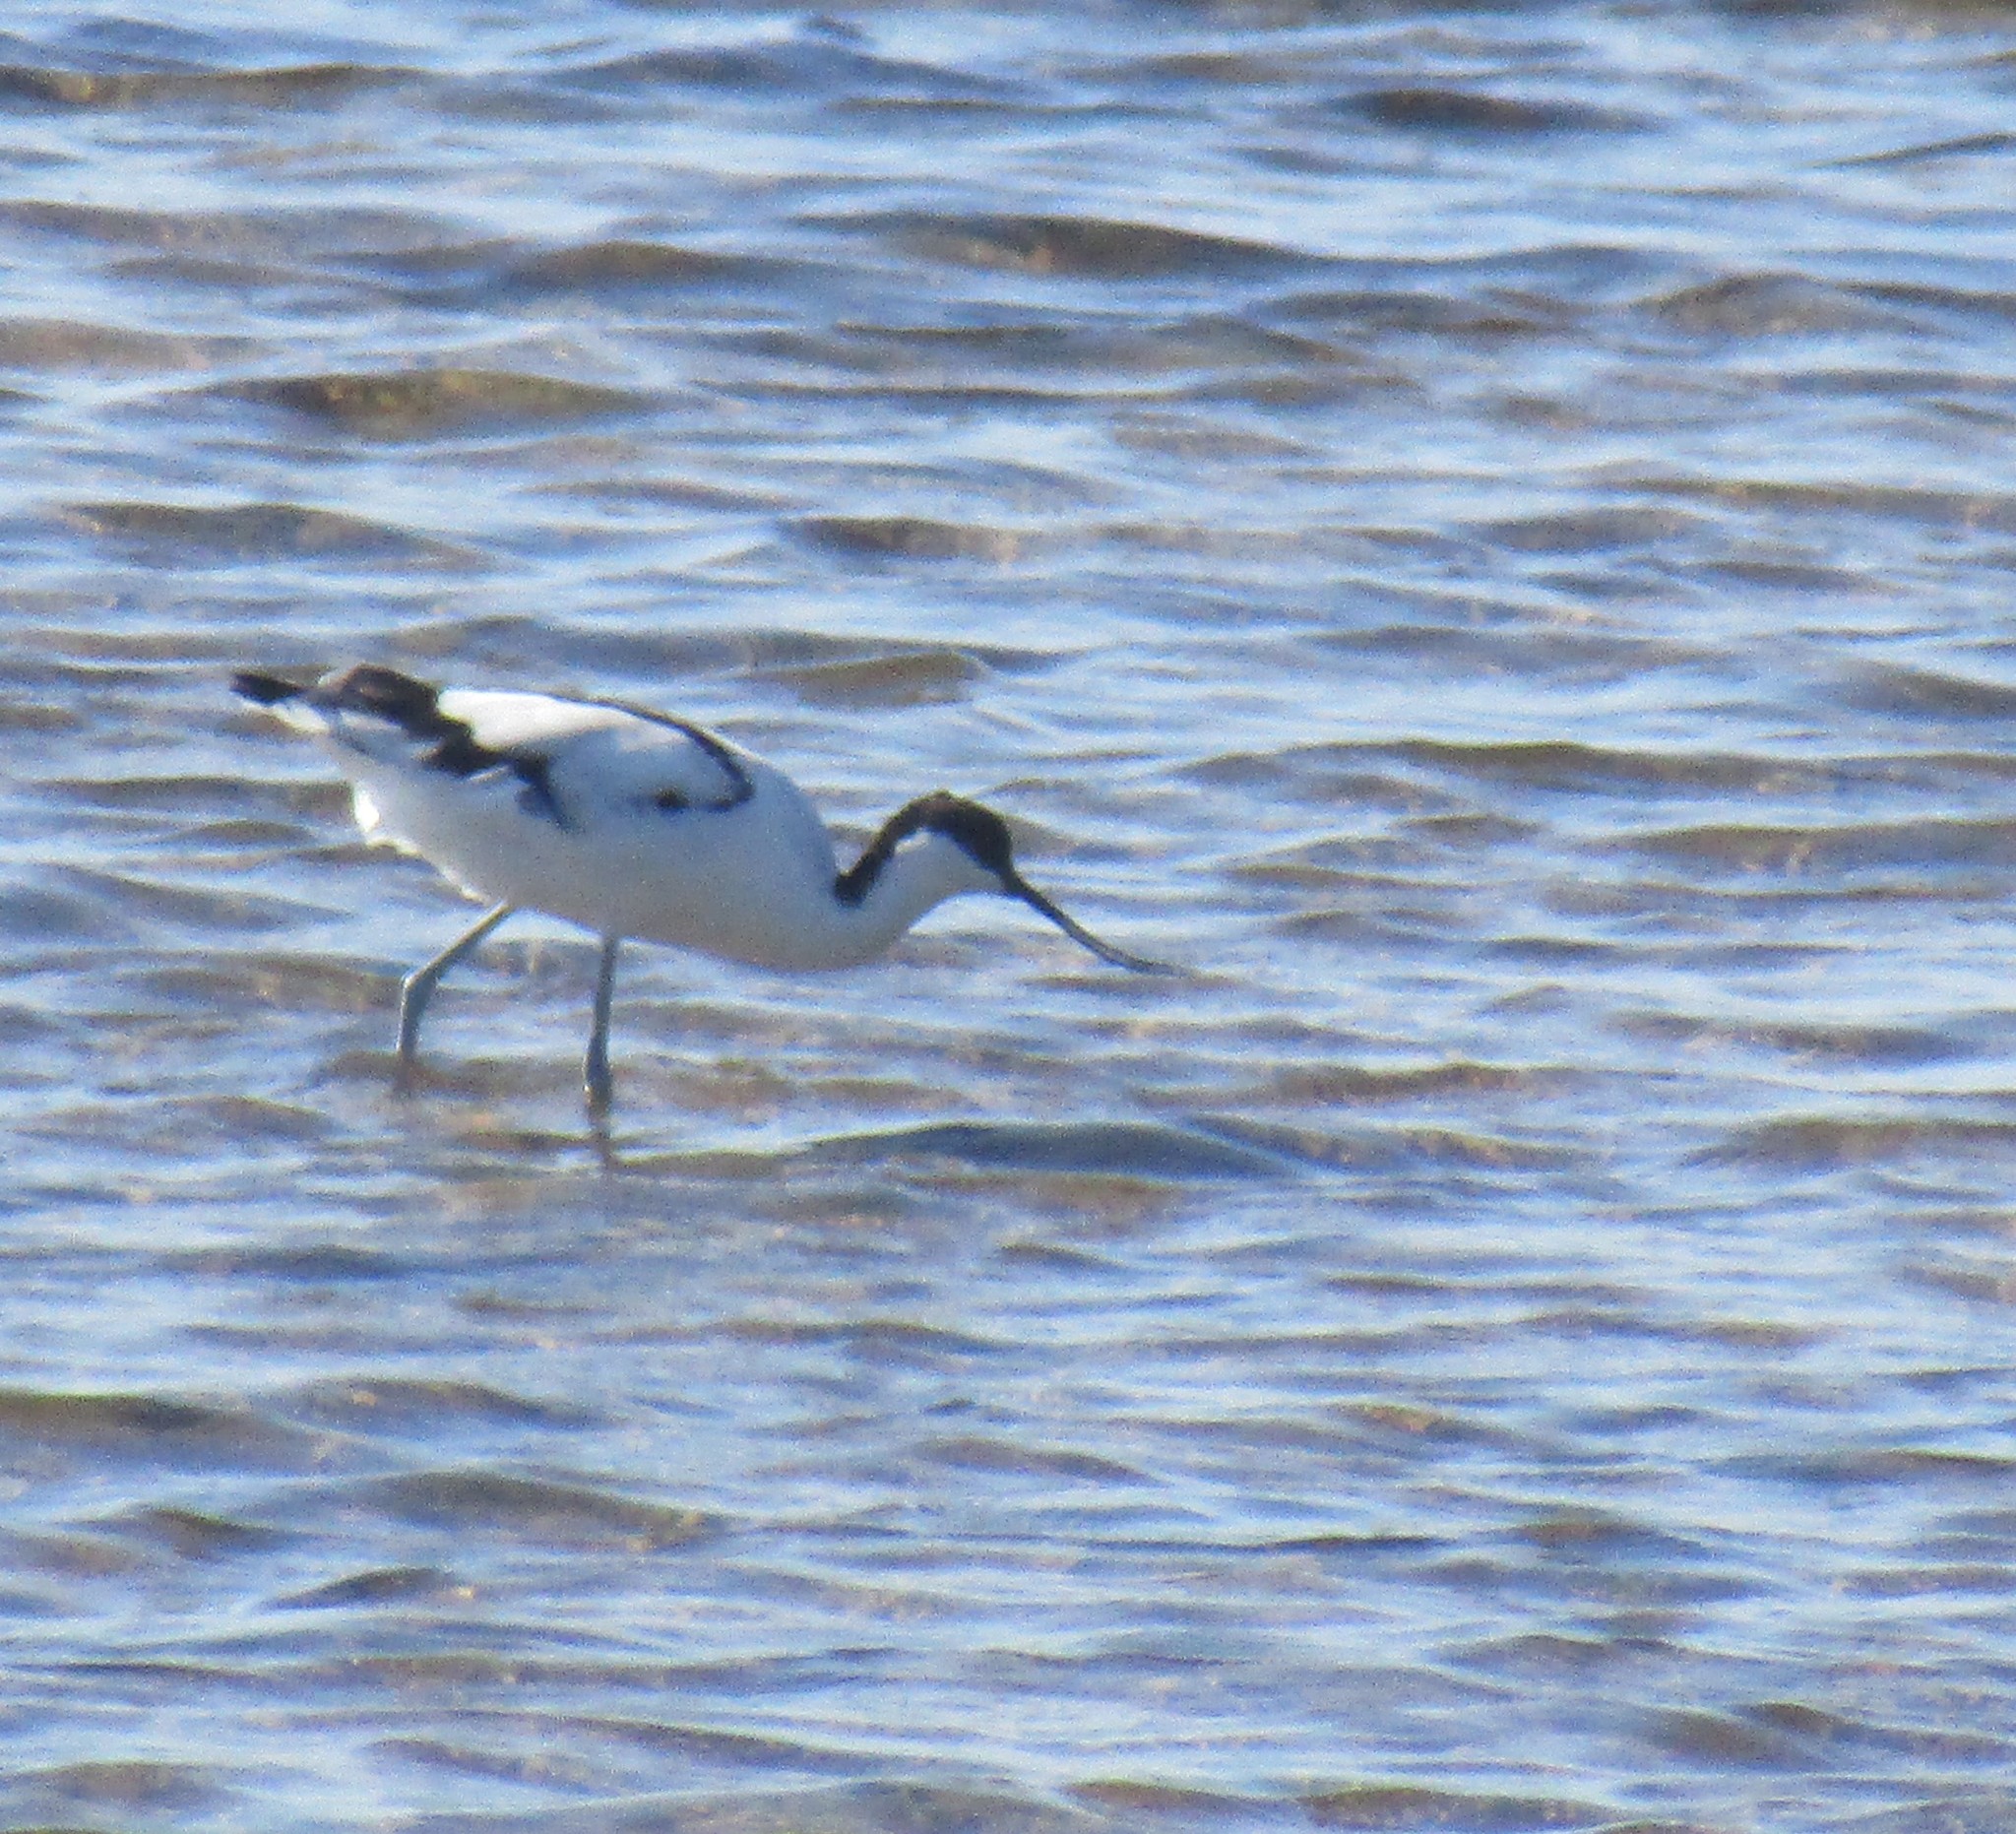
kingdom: Animalia
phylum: Chordata
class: Aves
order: Charadriiformes
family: Recurvirostridae
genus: Recurvirostra
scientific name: Recurvirostra avosetta
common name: Pied avocet
